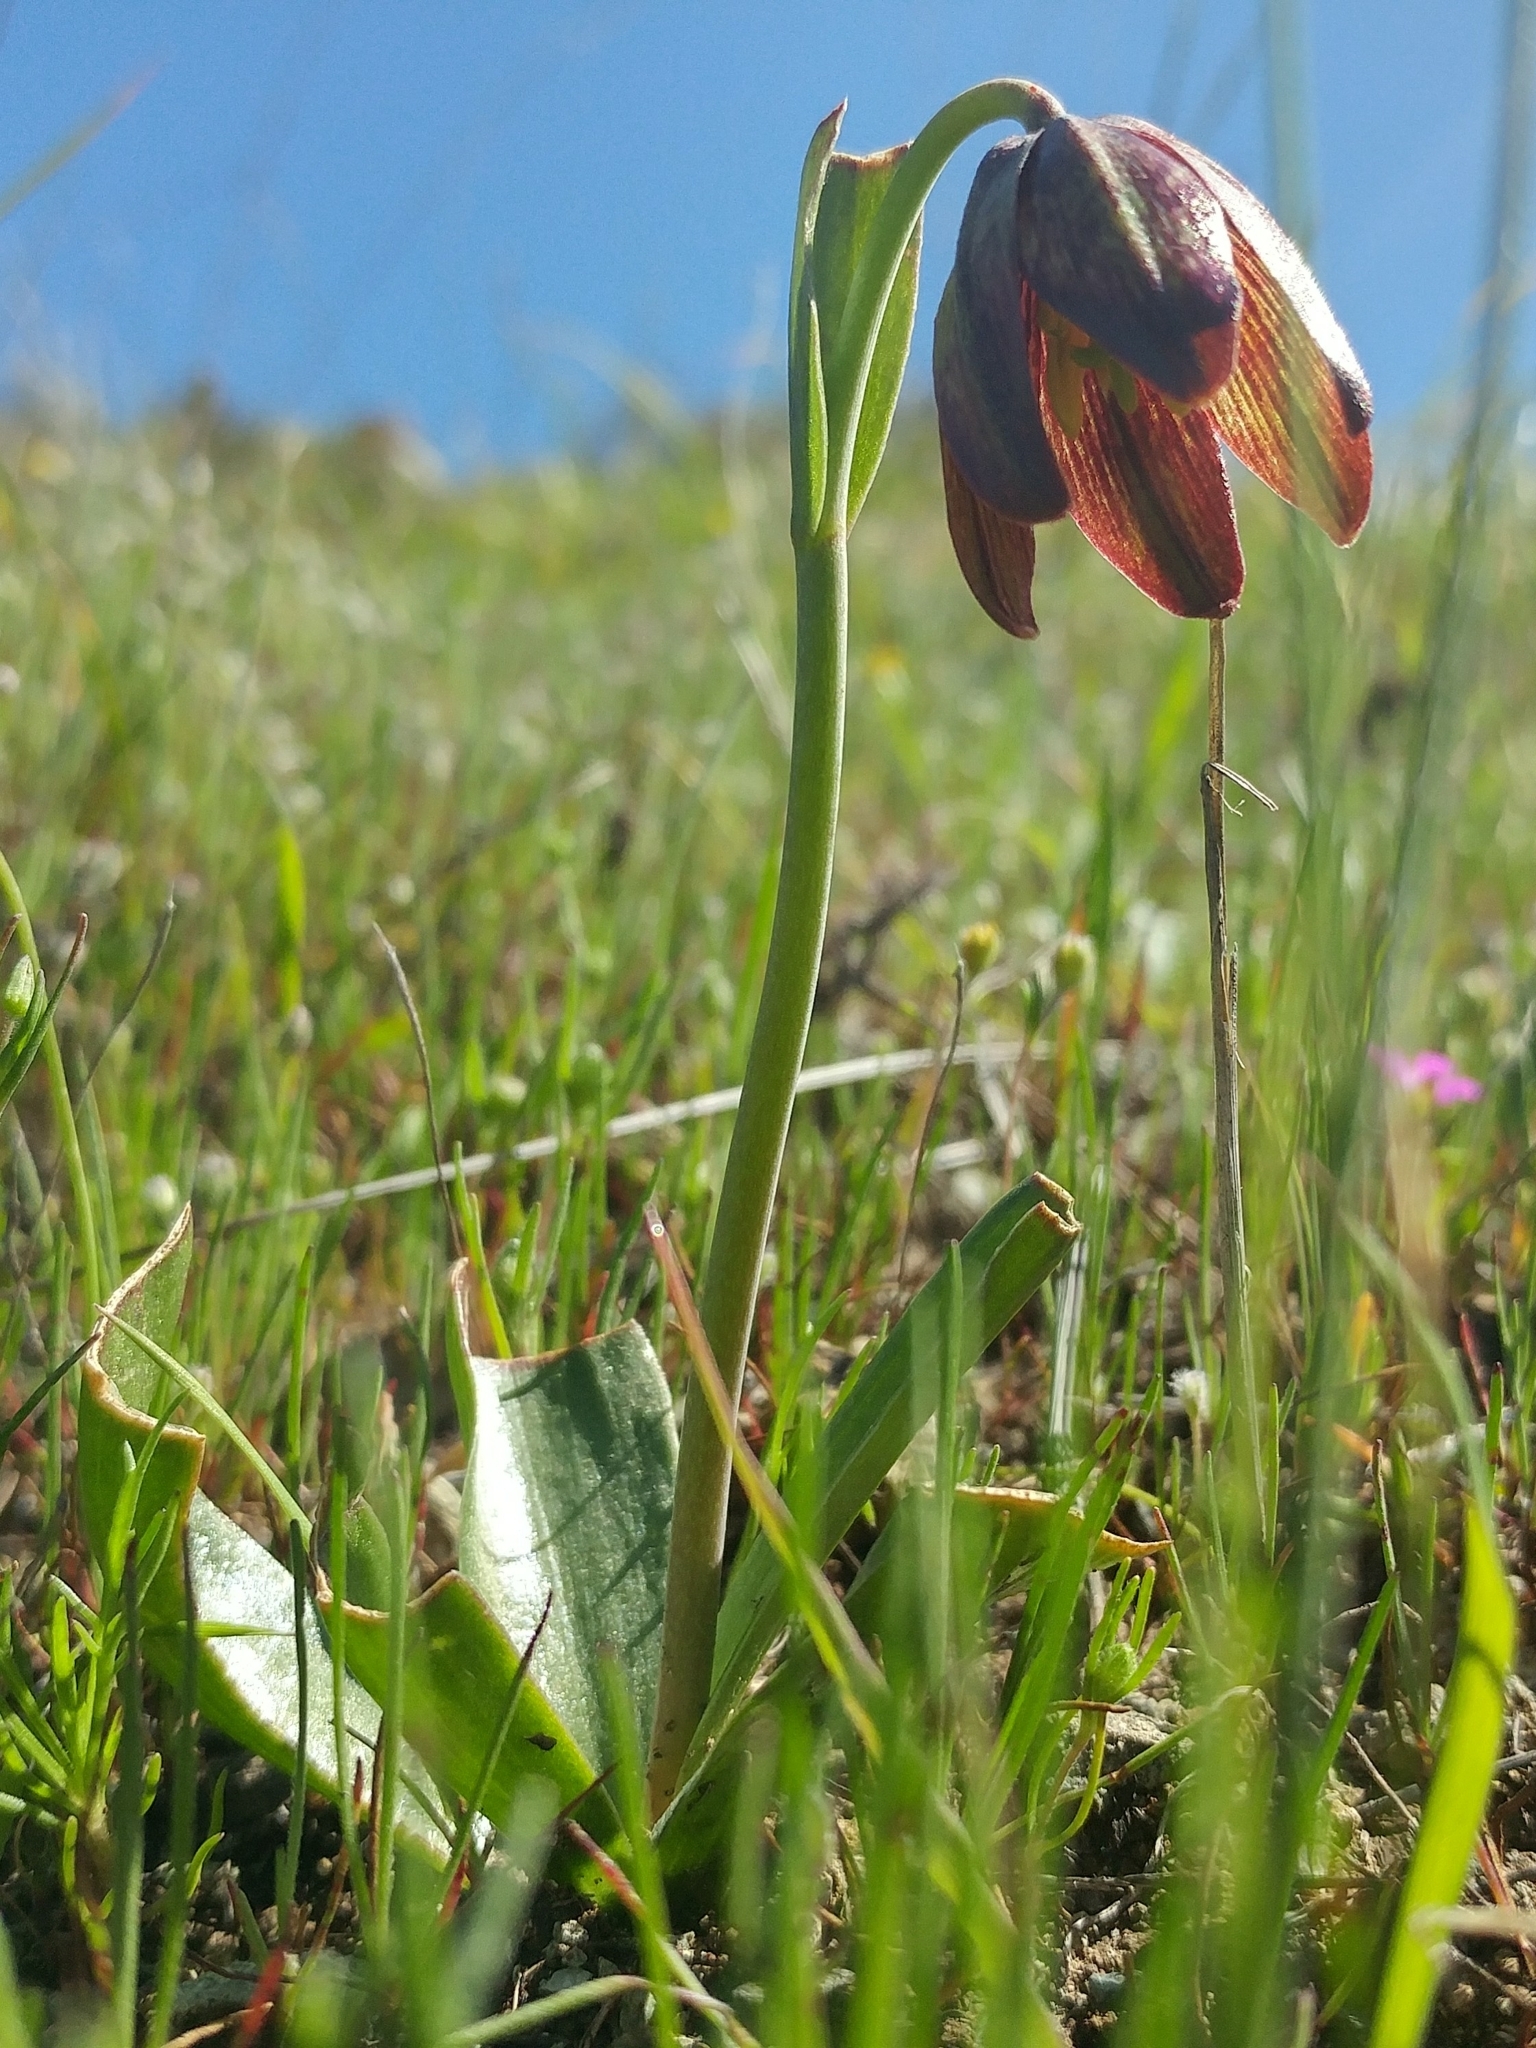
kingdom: Plantae
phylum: Tracheophyta
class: Liliopsida
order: Liliales
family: Liliaceae
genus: Fritillaria
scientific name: Fritillaria biflora
